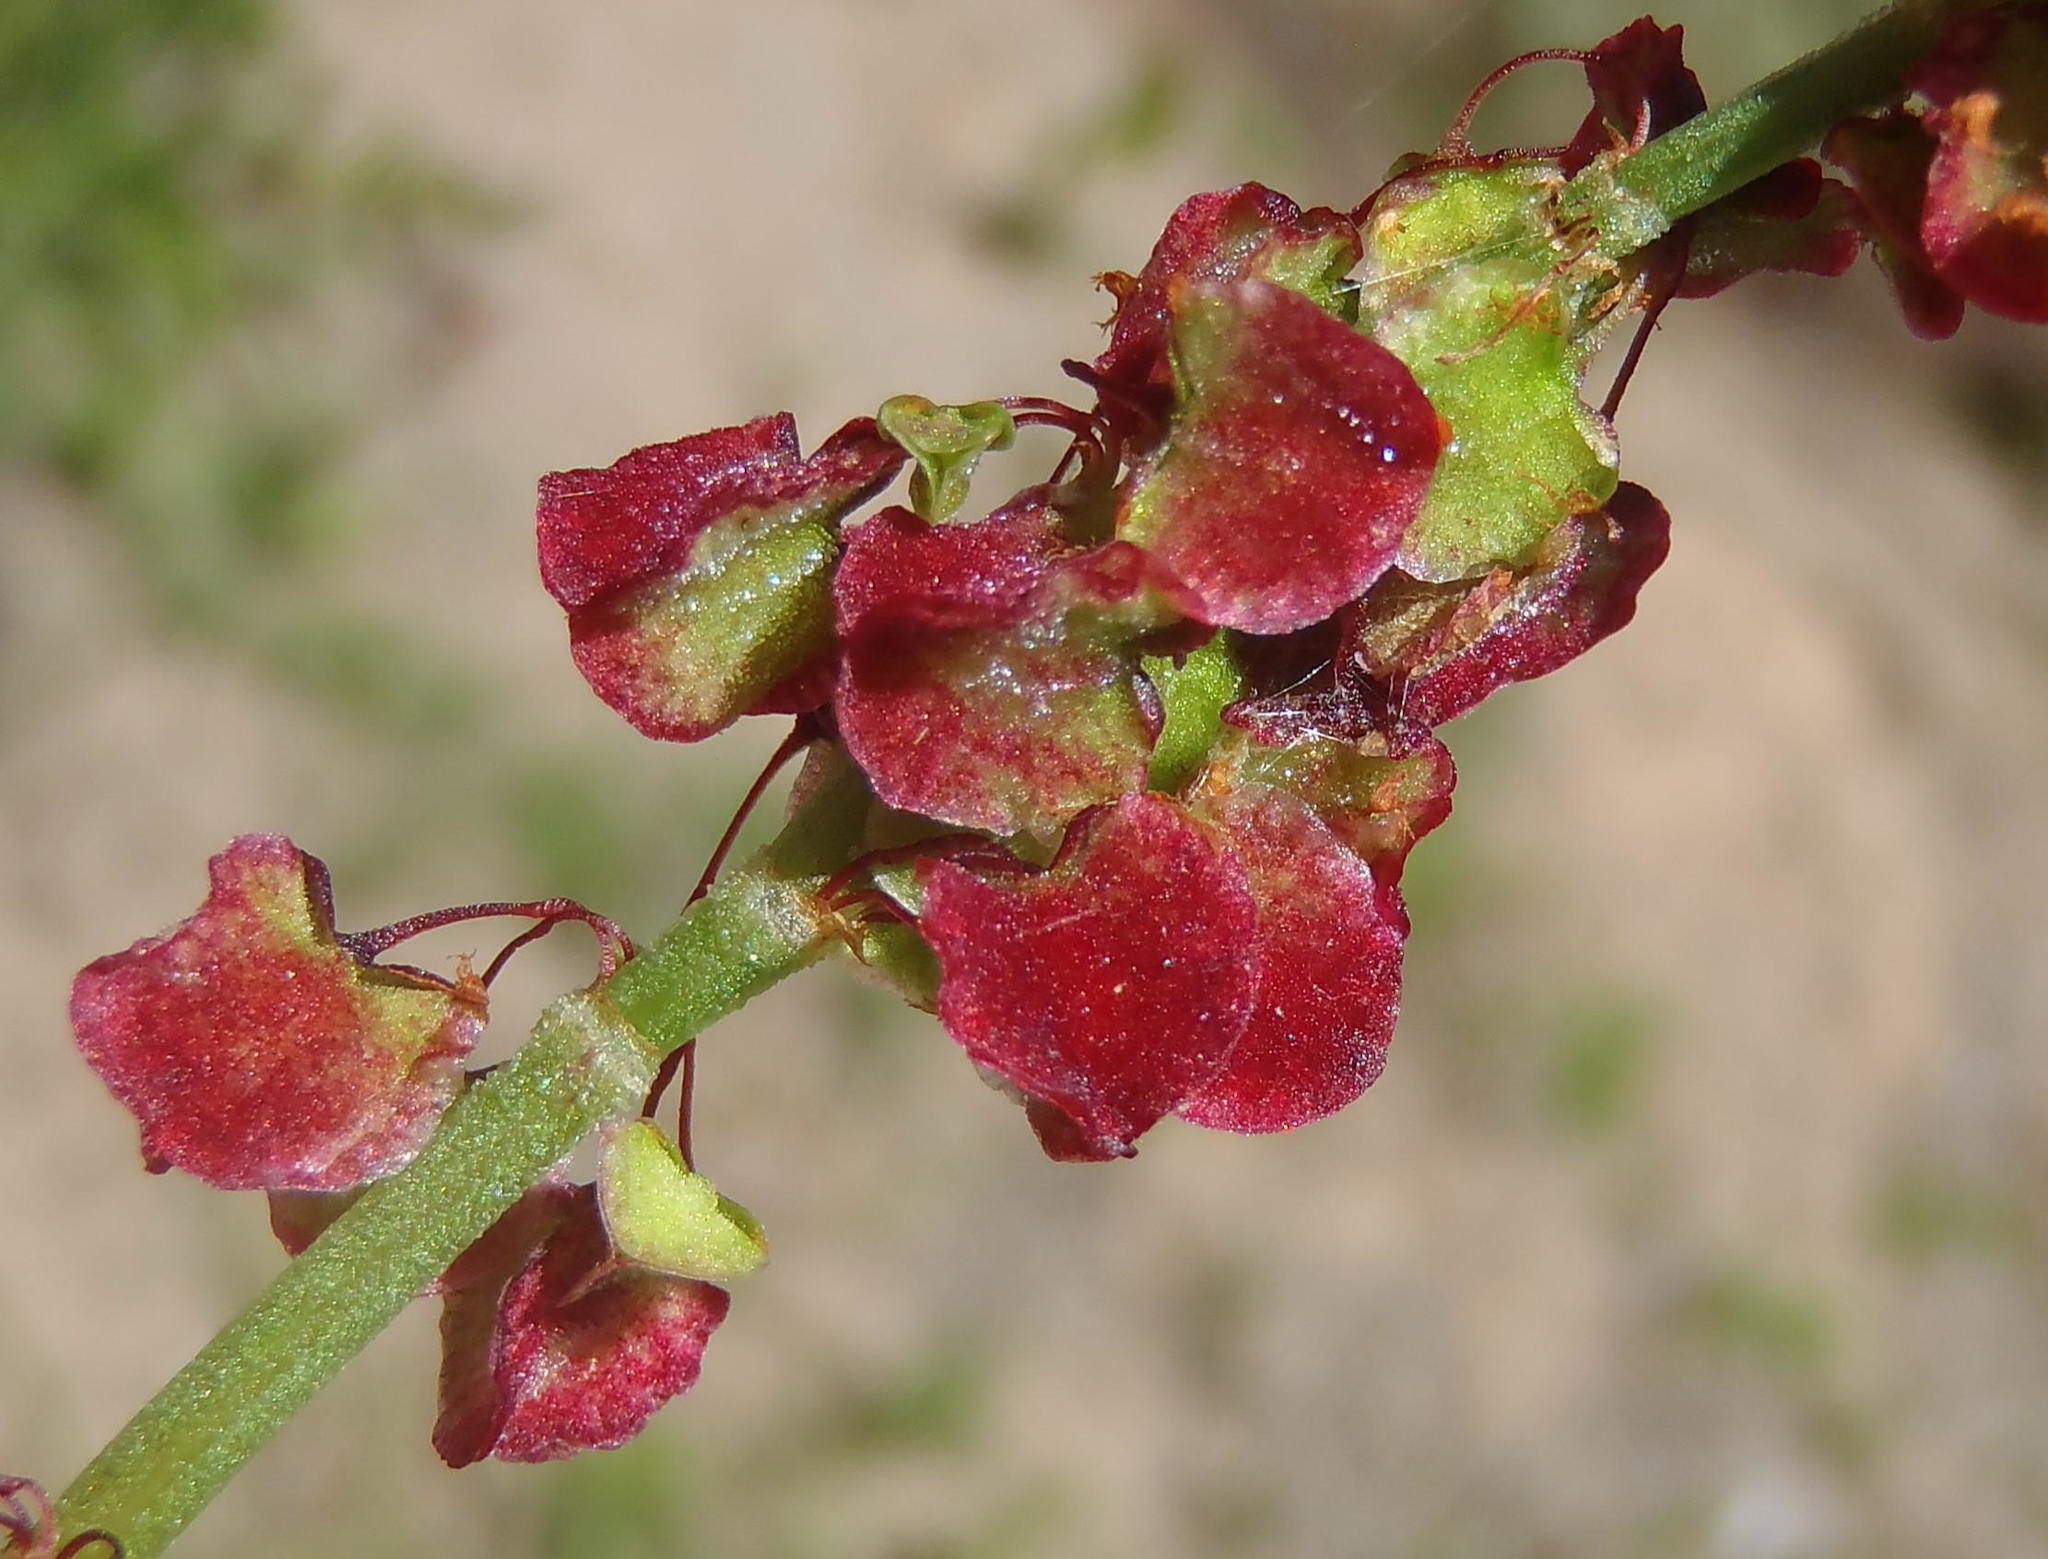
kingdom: Plantae
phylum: Tracheophyta
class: Magnoliopsida
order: Caryophyllales
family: Polygonaceae
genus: Rumex
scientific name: Rumex crispus
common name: Curled dock
